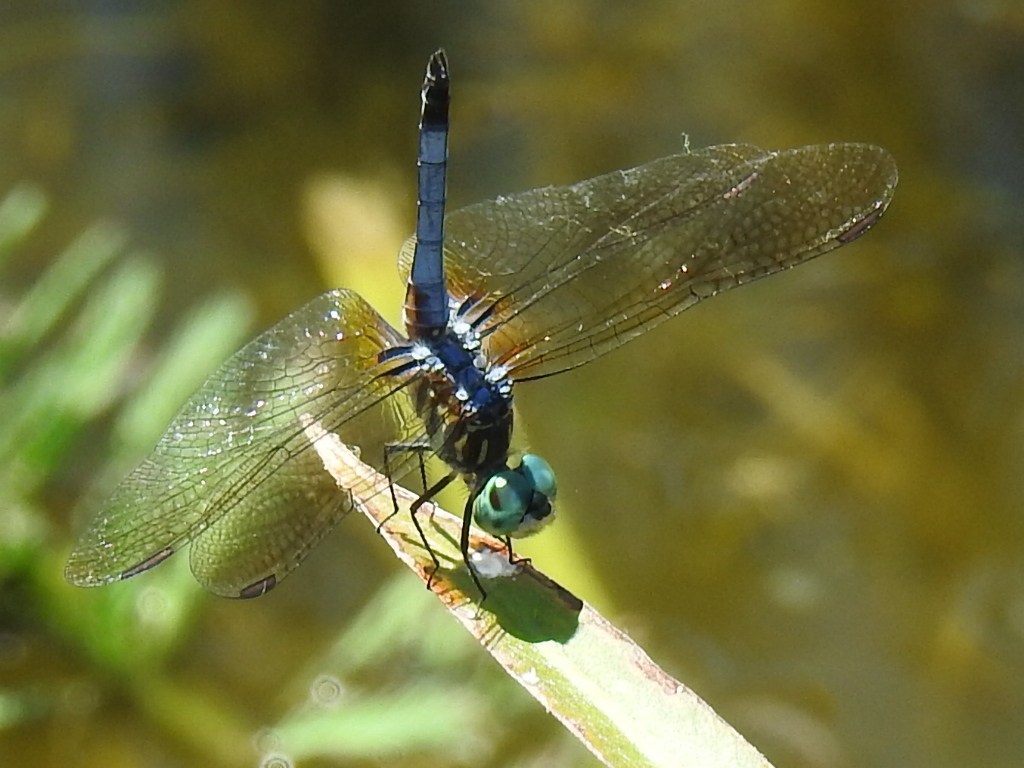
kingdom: Animalia
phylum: Arthropoda
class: Insecta
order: Odonata
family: Libellulidae
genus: Pachydiplax
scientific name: Pachydiplax longipennis
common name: Blue dasher
